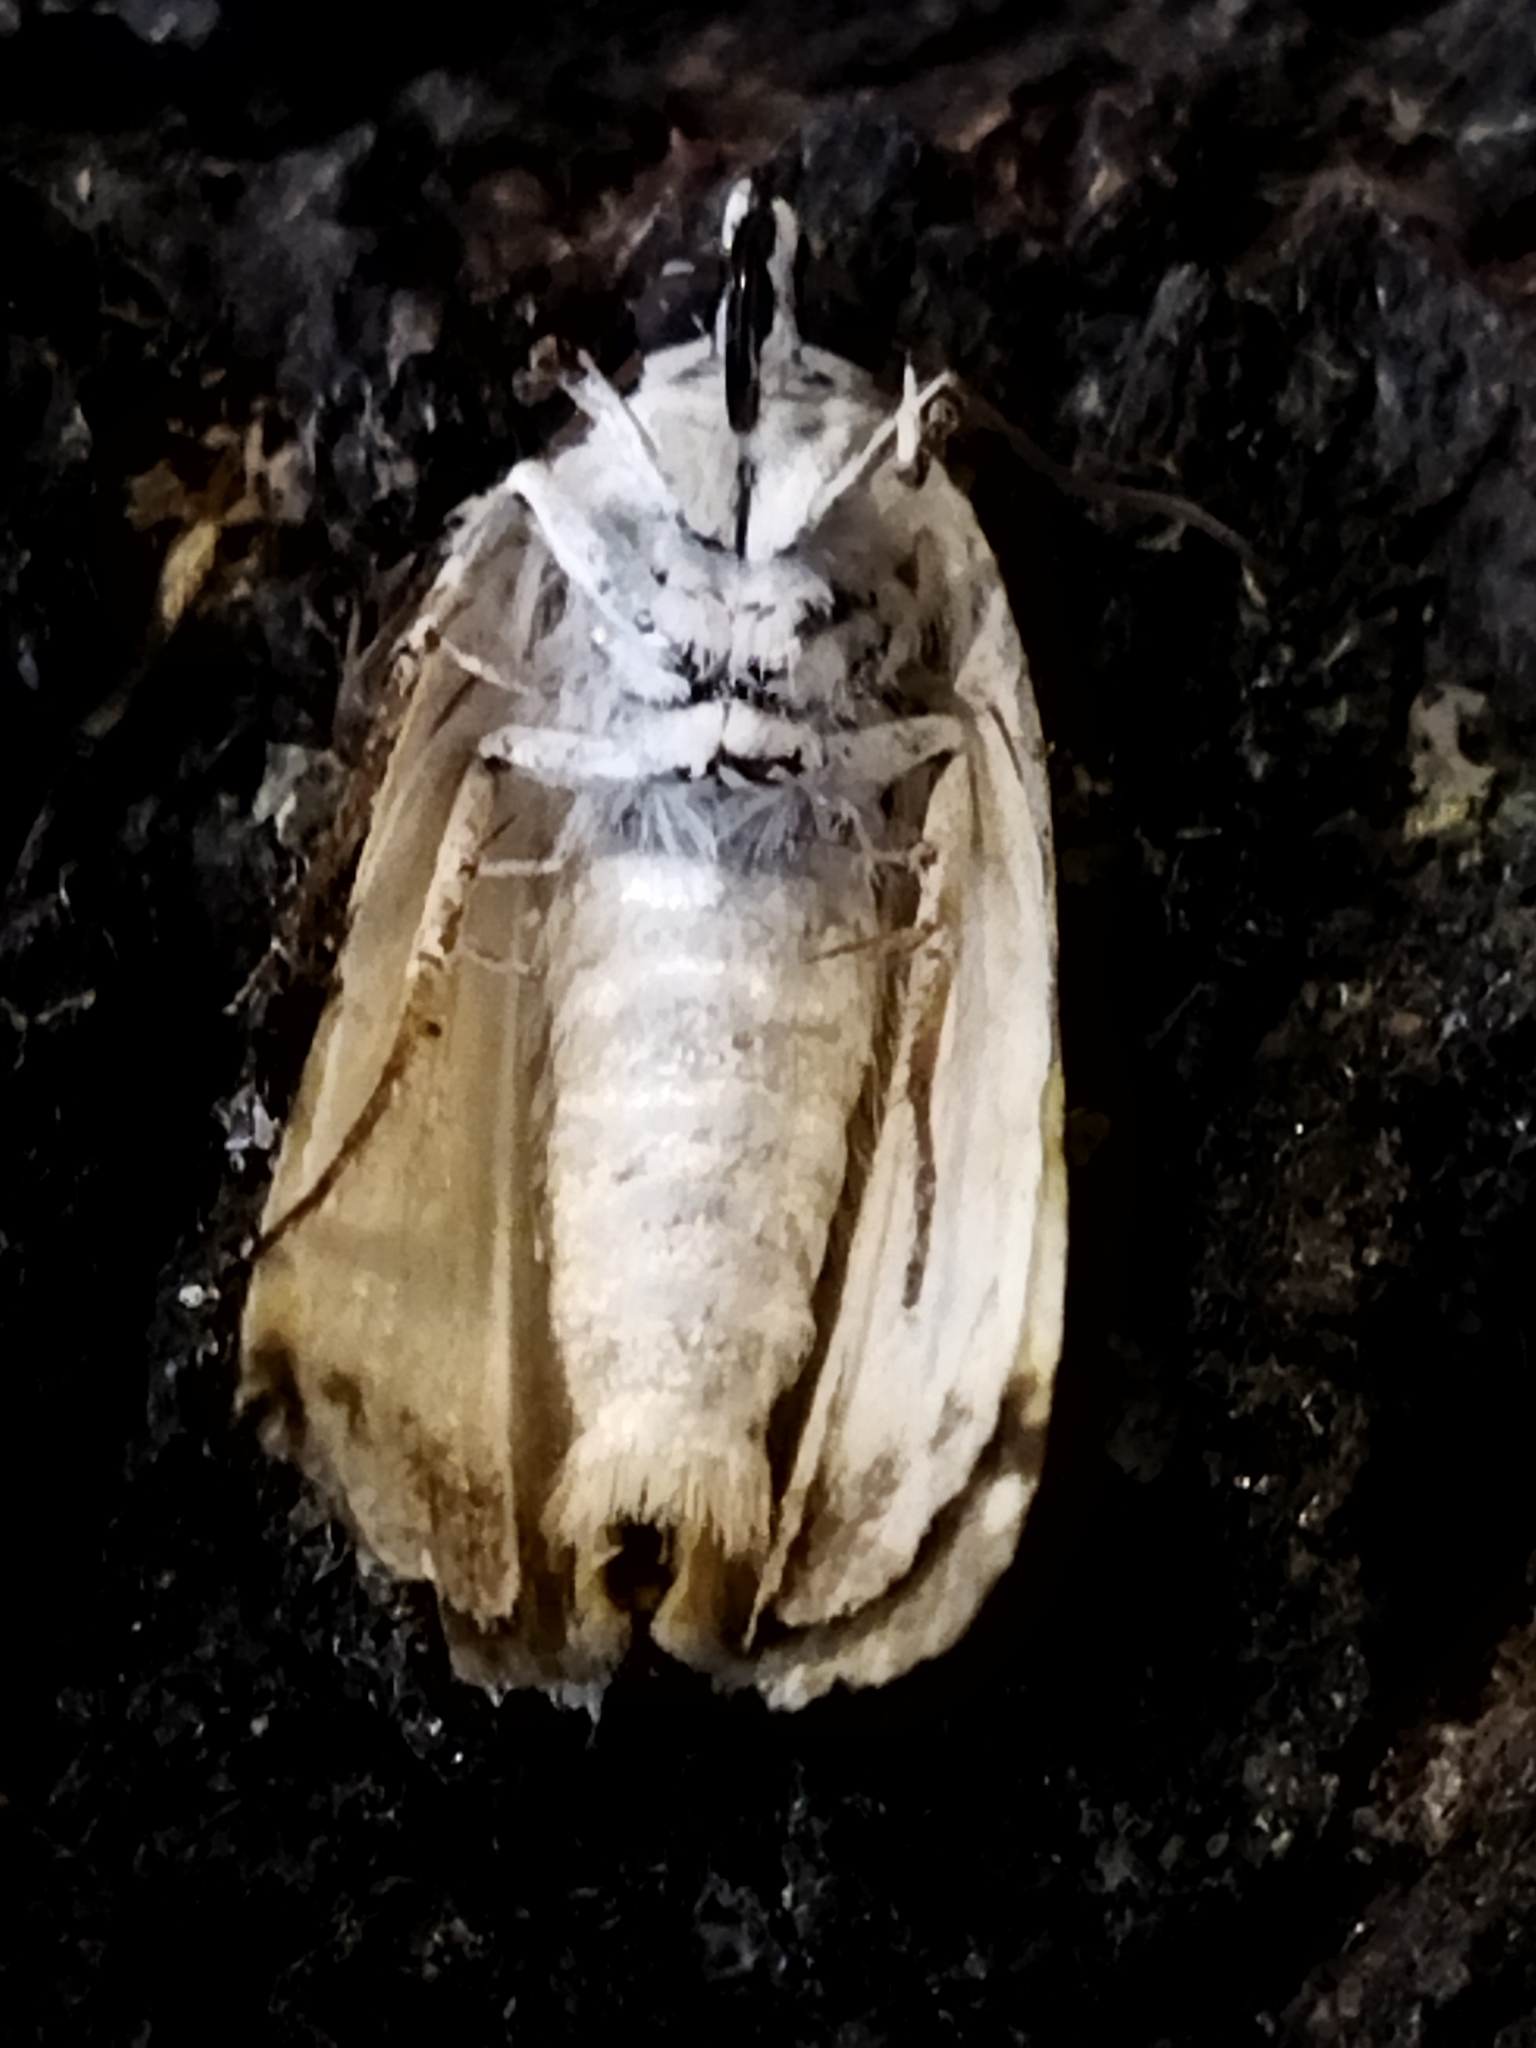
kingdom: Animalia
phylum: Arthropoda
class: Insecta
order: Lepidoptera
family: Noctuidae
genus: Acontia
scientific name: Acontia lucida
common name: Pale shoulder
